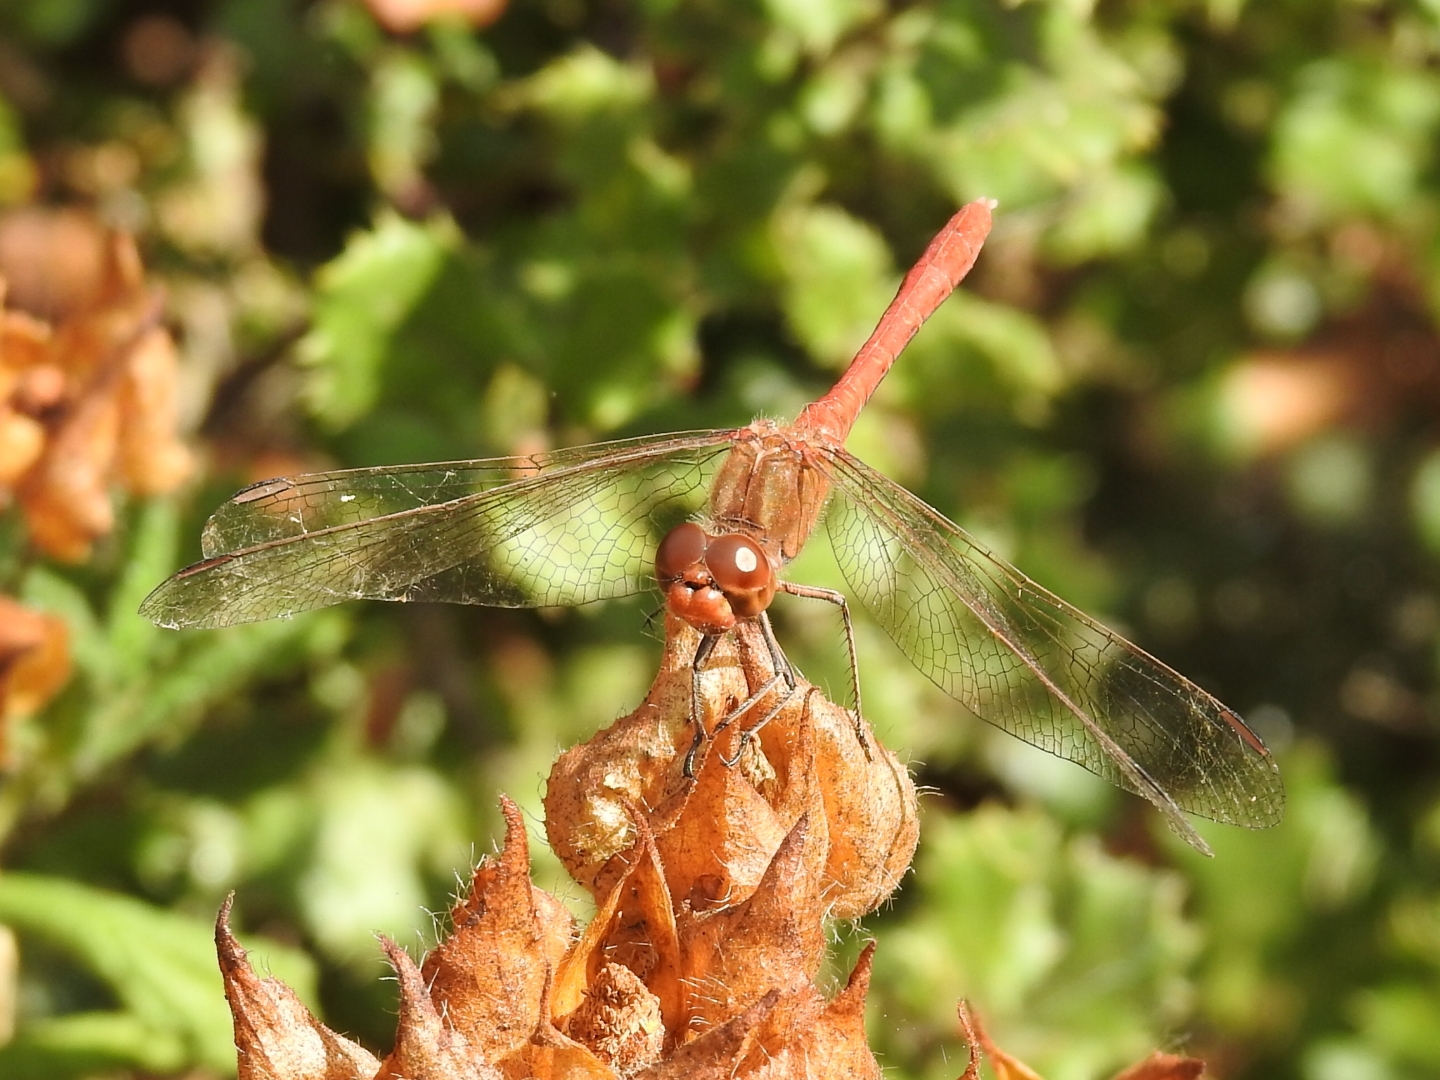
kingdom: Animalia
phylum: Arthropoda
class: Insecta
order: Odonata
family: Libellulidae
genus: Sympetrum
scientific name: Sympetrum meridionale
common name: Southern darter
